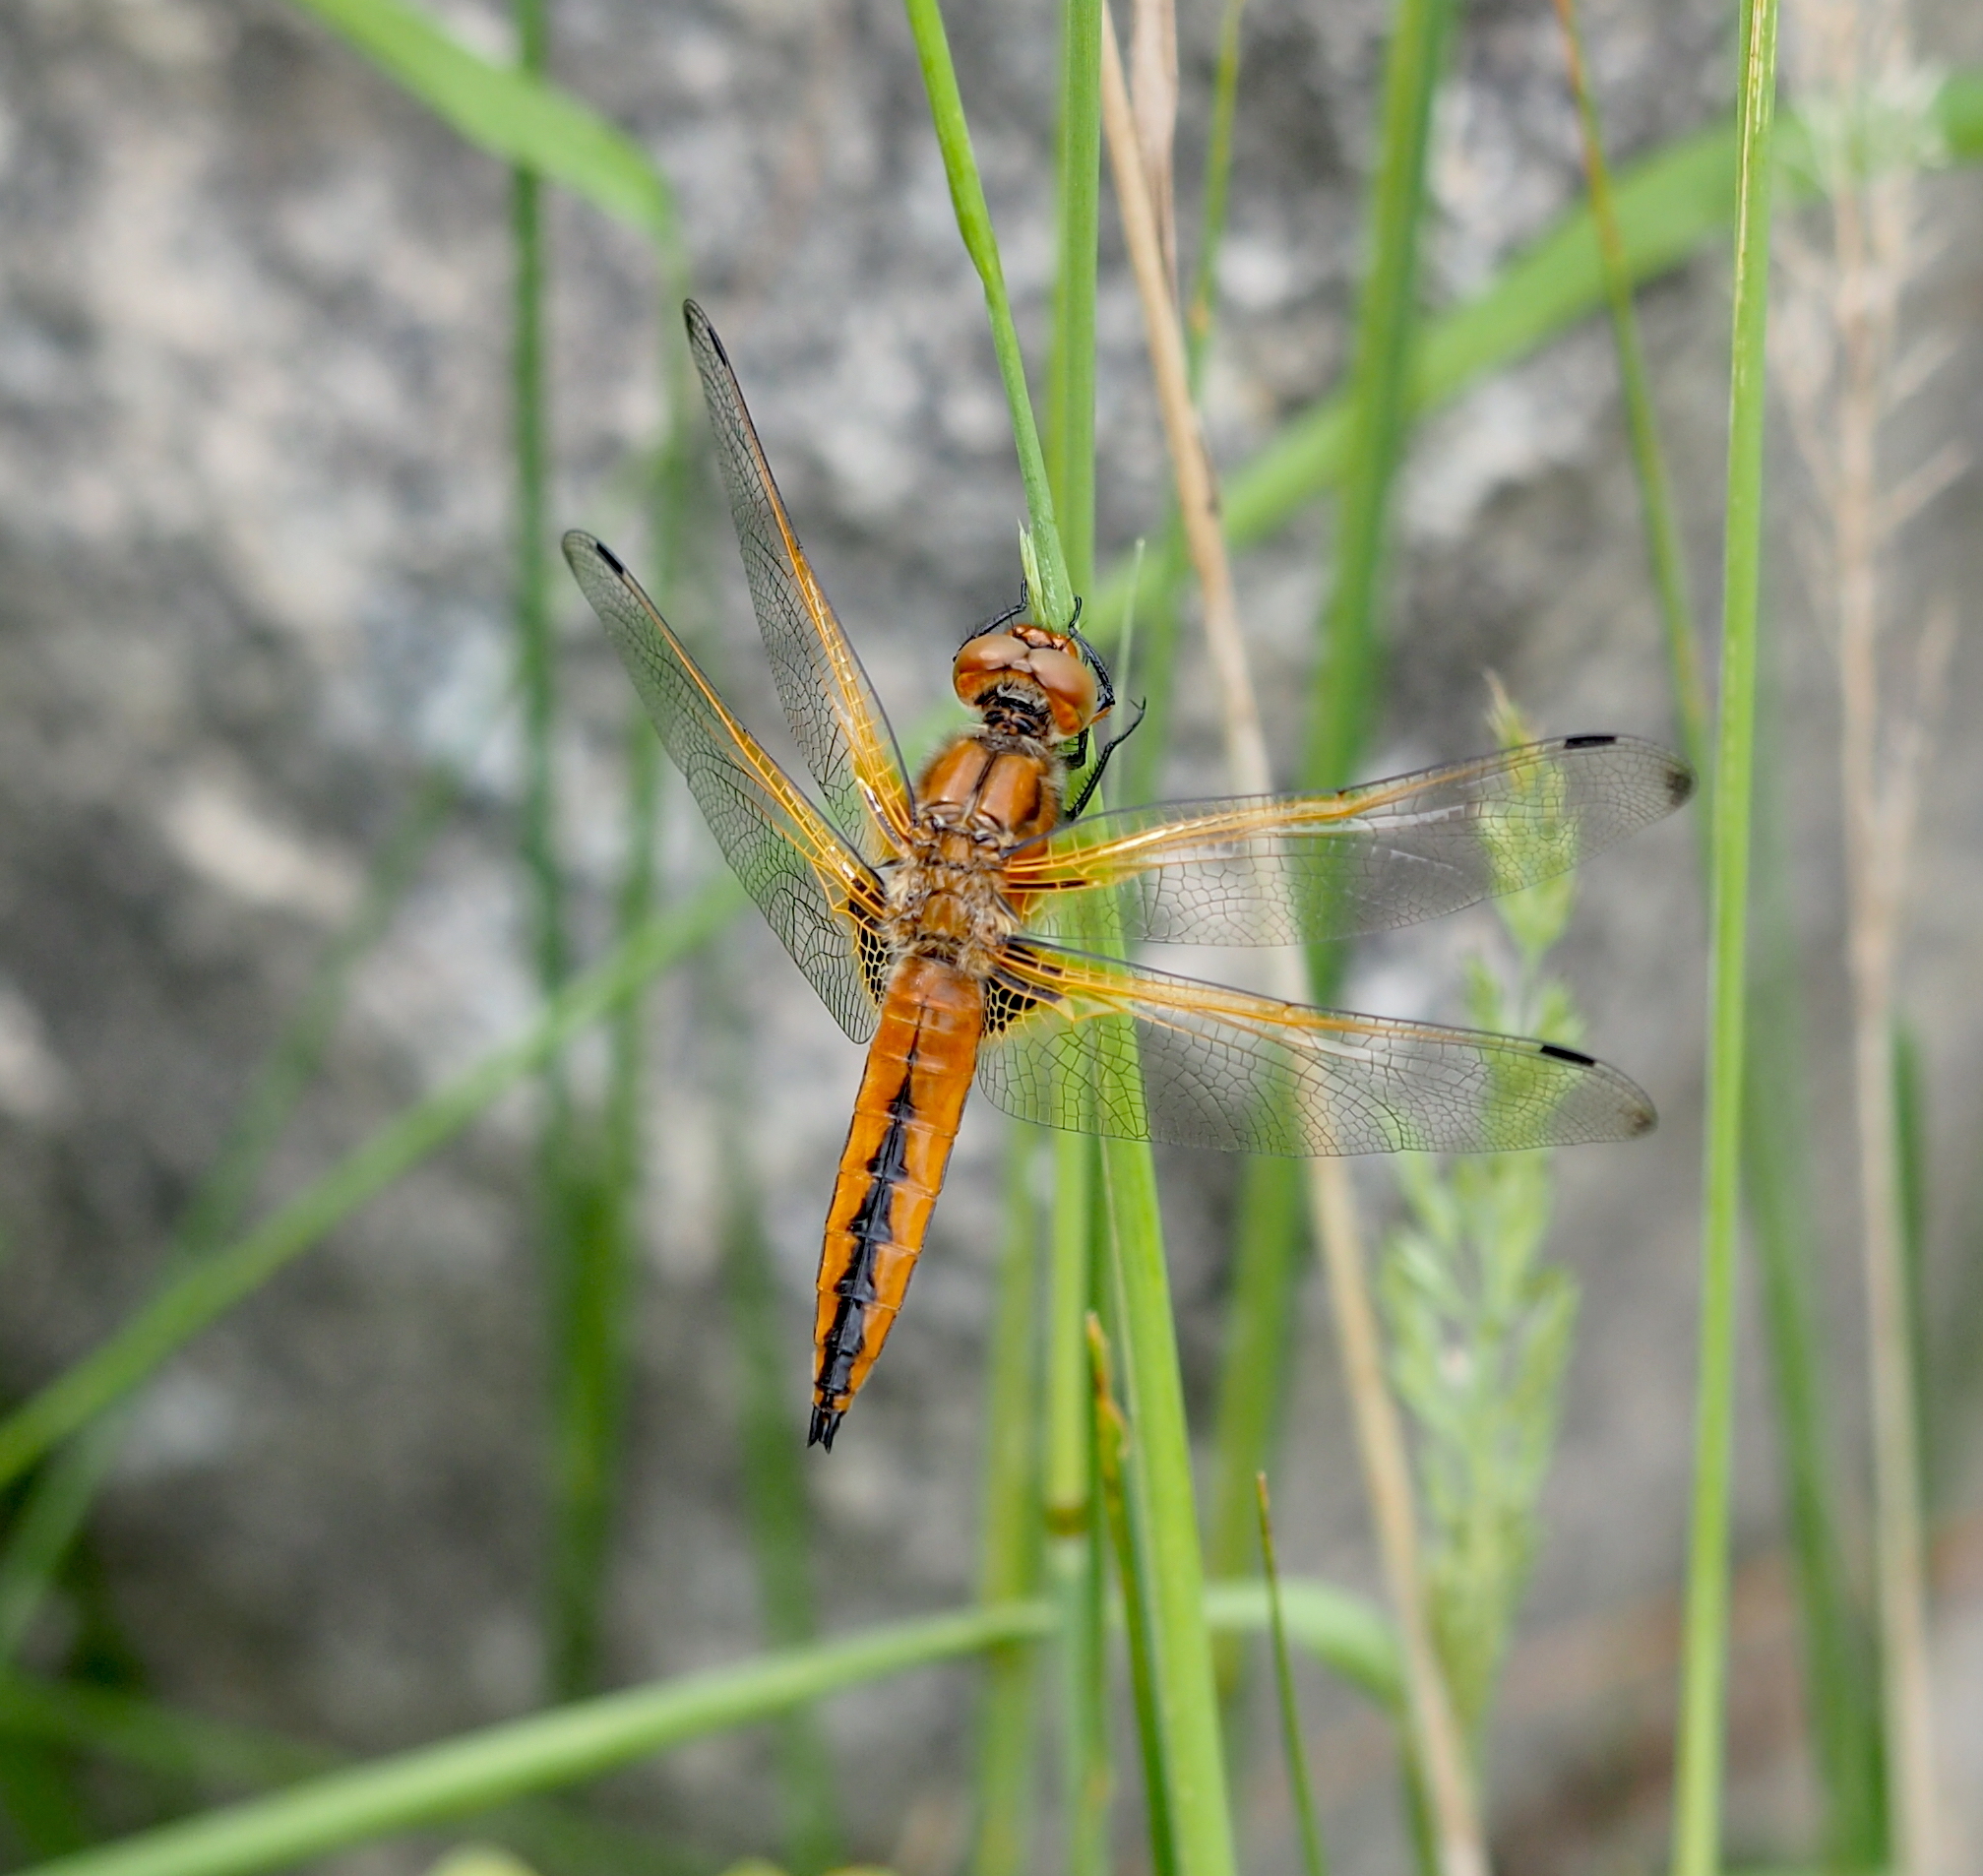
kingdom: Animalia
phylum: Arthropoda
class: Insecta
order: Odonata
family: Libellulidae
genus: Libellula
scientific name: Libellula fulva
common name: Blue chaser
